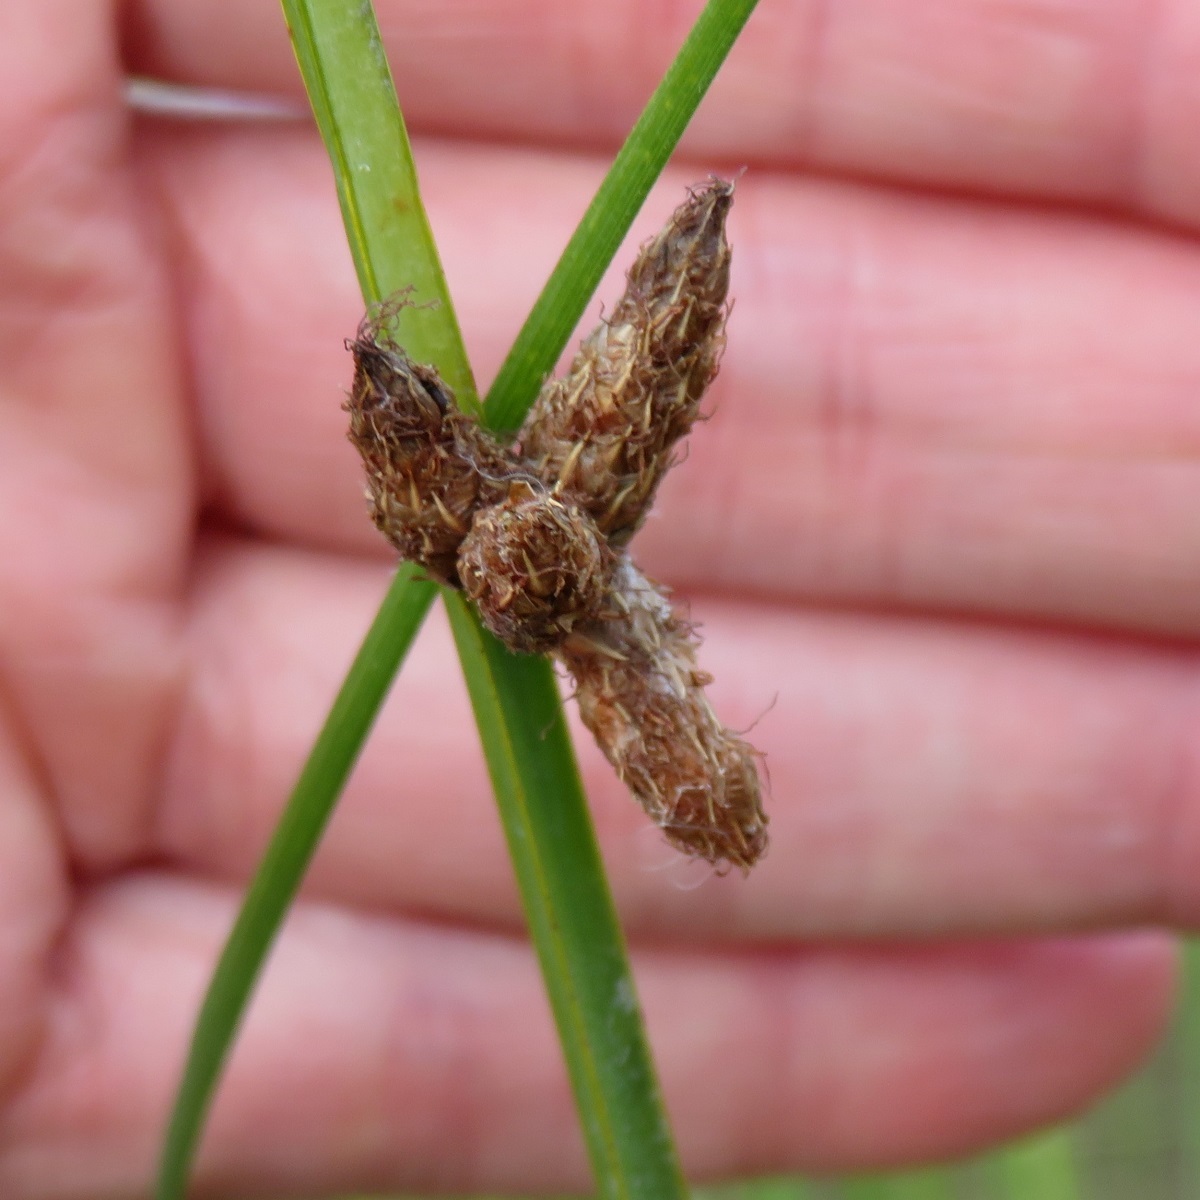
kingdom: Plantae
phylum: Tracheophyta
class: Liliopsida
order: Poales
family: Cyperaceae
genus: Schoenoplectus
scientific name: Schoenoplectus pungens
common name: Sharp club-rush
